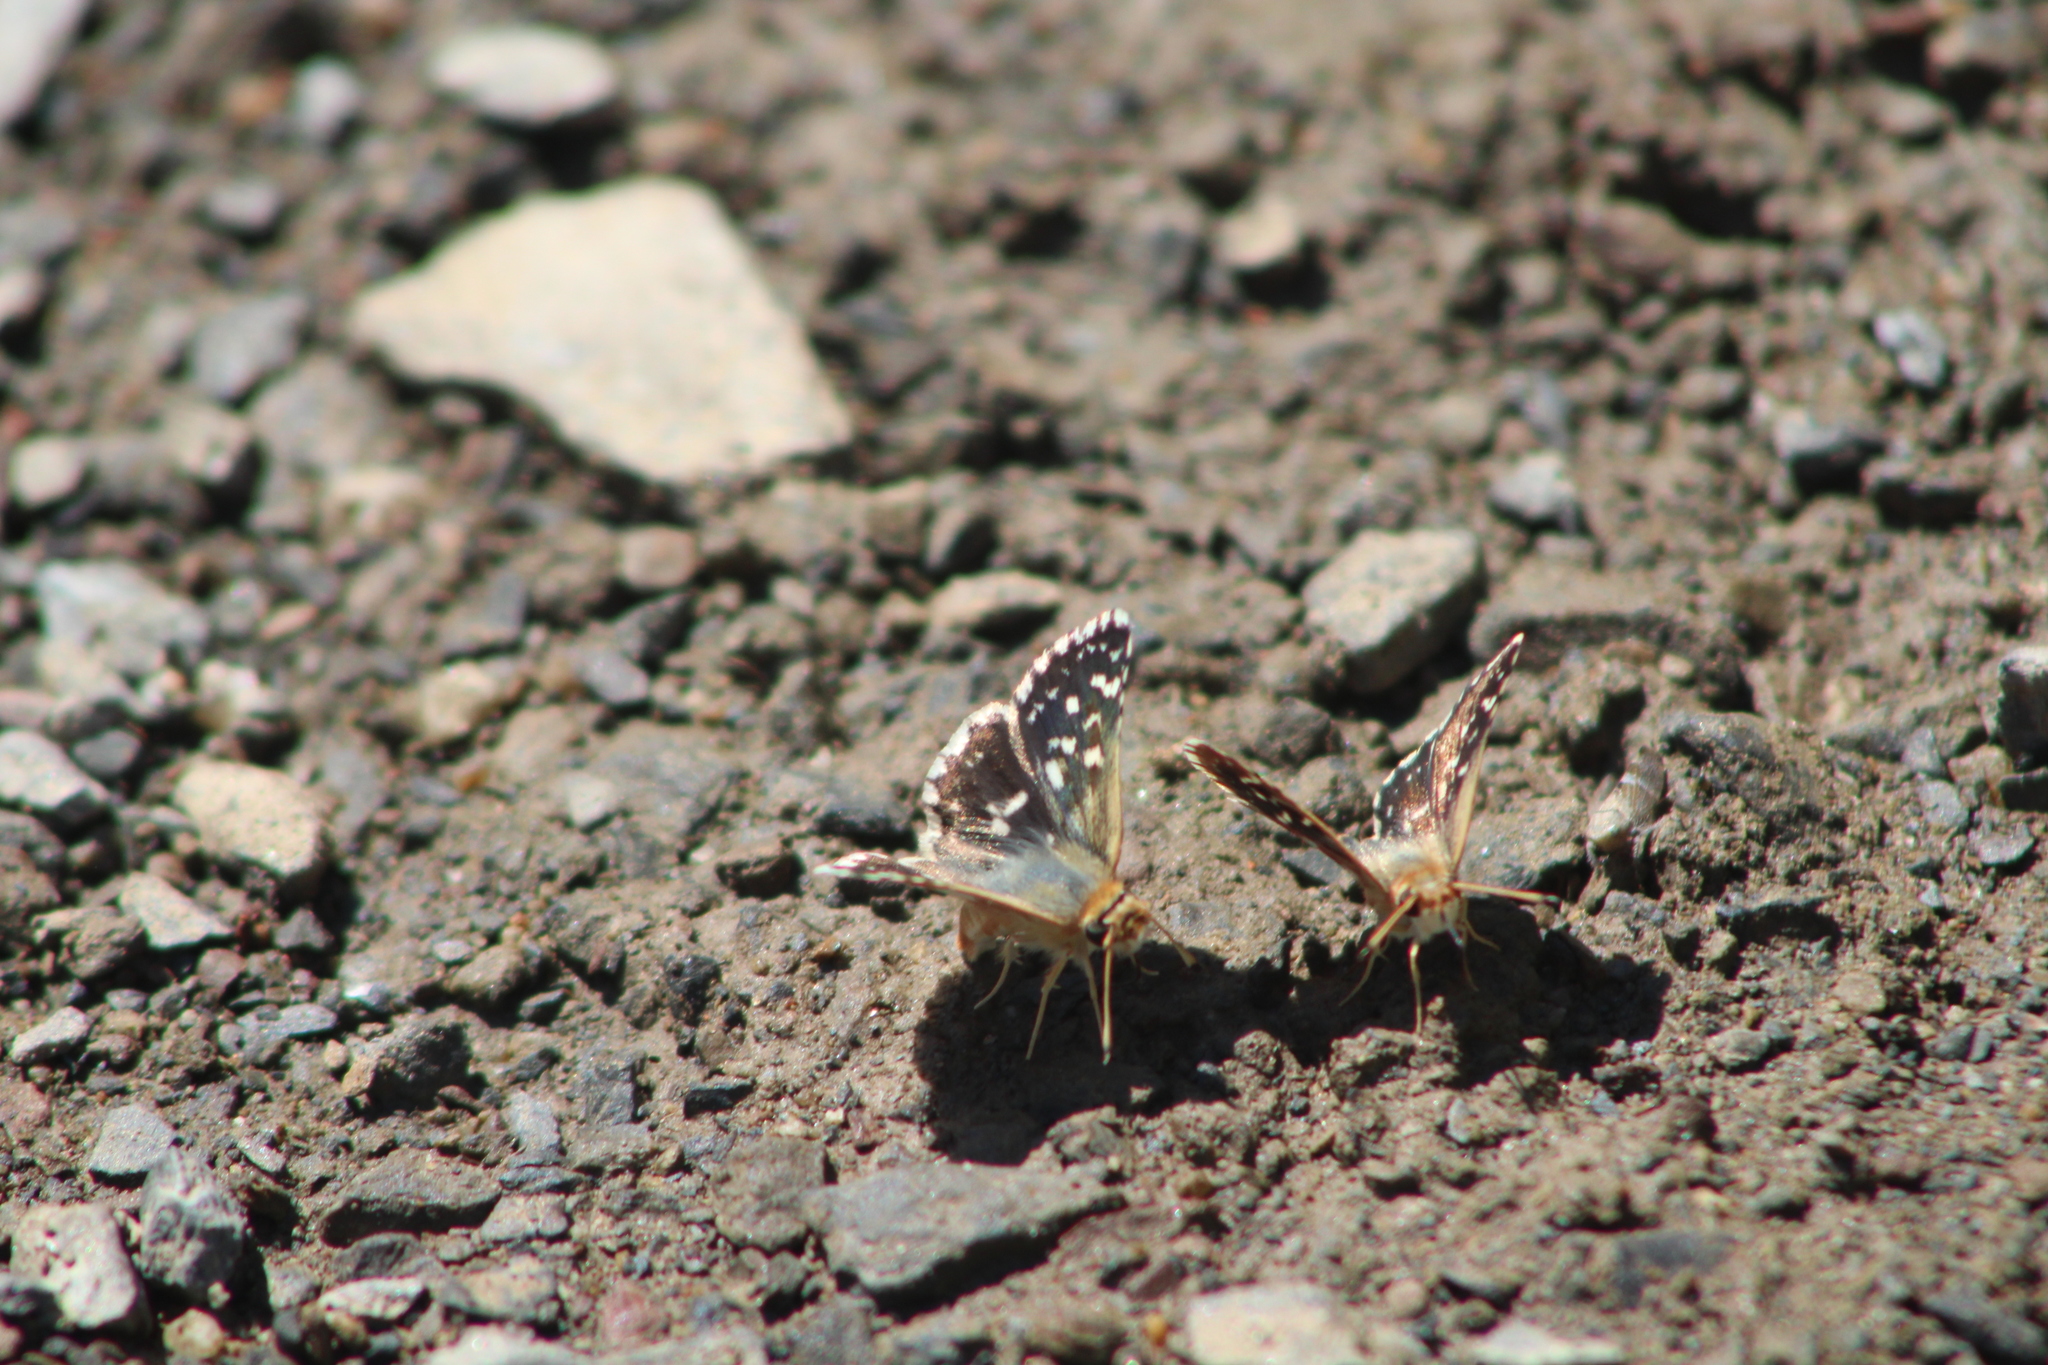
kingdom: Animalia
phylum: Arthropoda
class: Insecta
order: Lepidoptera
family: Hesperiidae
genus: Spialia
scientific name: Spialia sertorius
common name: Red underwing skipper
